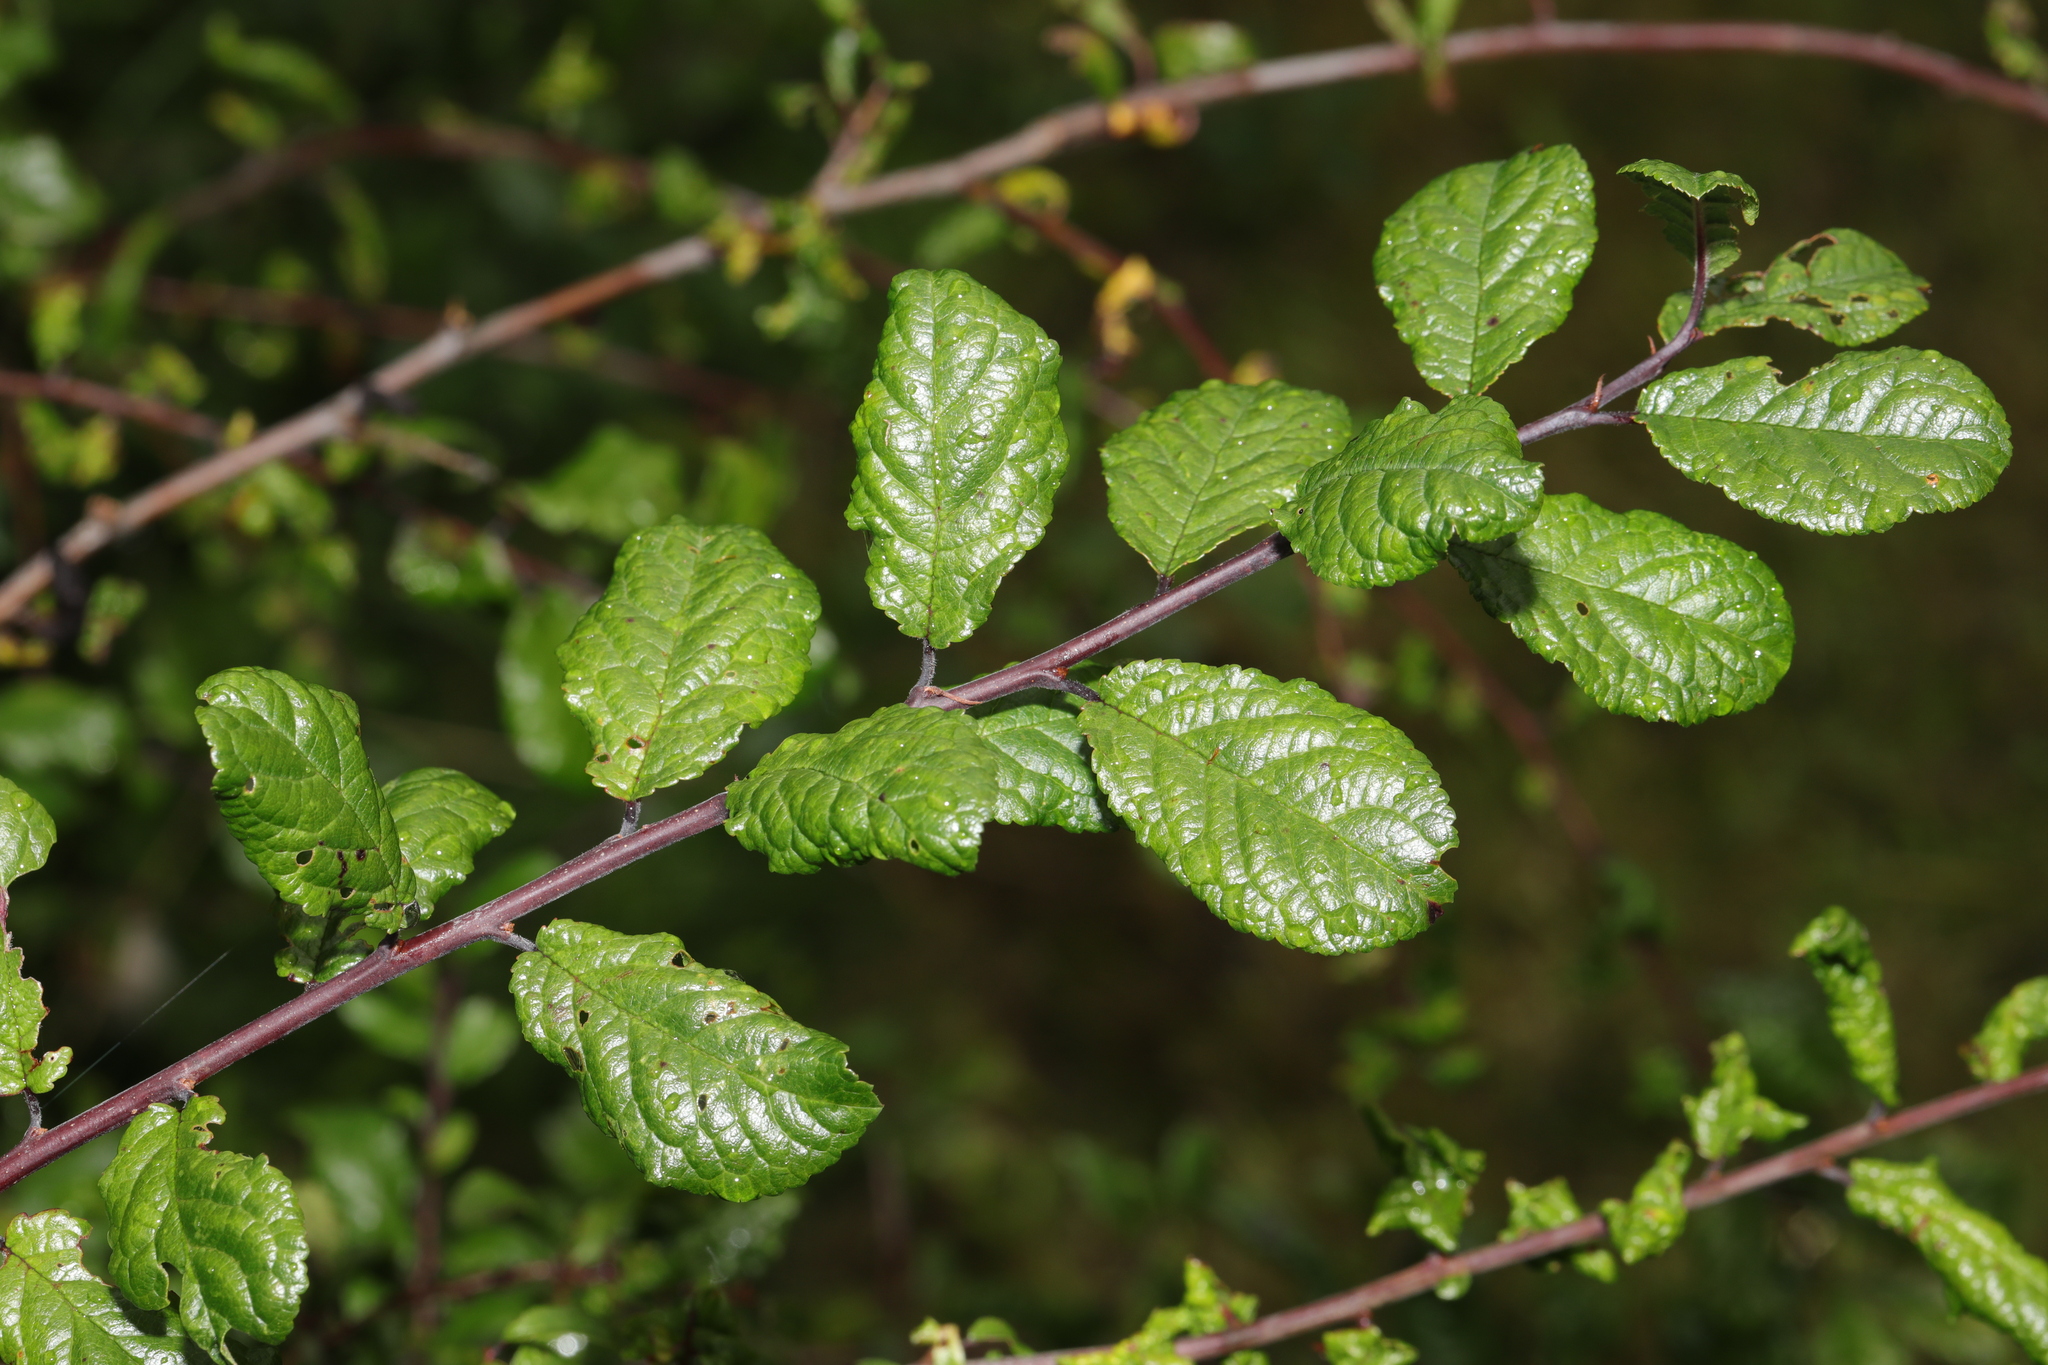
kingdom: Plantae
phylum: Tracheophyta
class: Magnoliopsida
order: Rosales
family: Rosaceae
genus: Prunus
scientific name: Prunus spinosa
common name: Blackthorn
